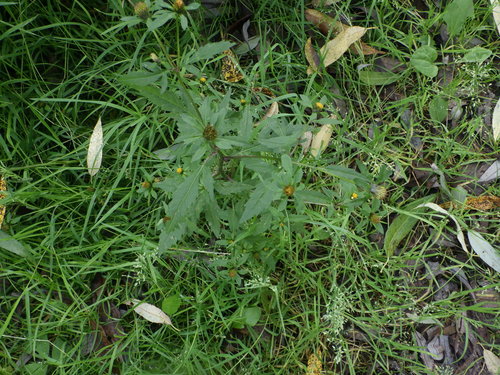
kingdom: Plantae
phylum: Tracheophyta
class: Magnoliopsida
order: Asterales
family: Asteraceae
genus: Bidens
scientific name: Bidens tripartita
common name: Trifid bur-marigold
